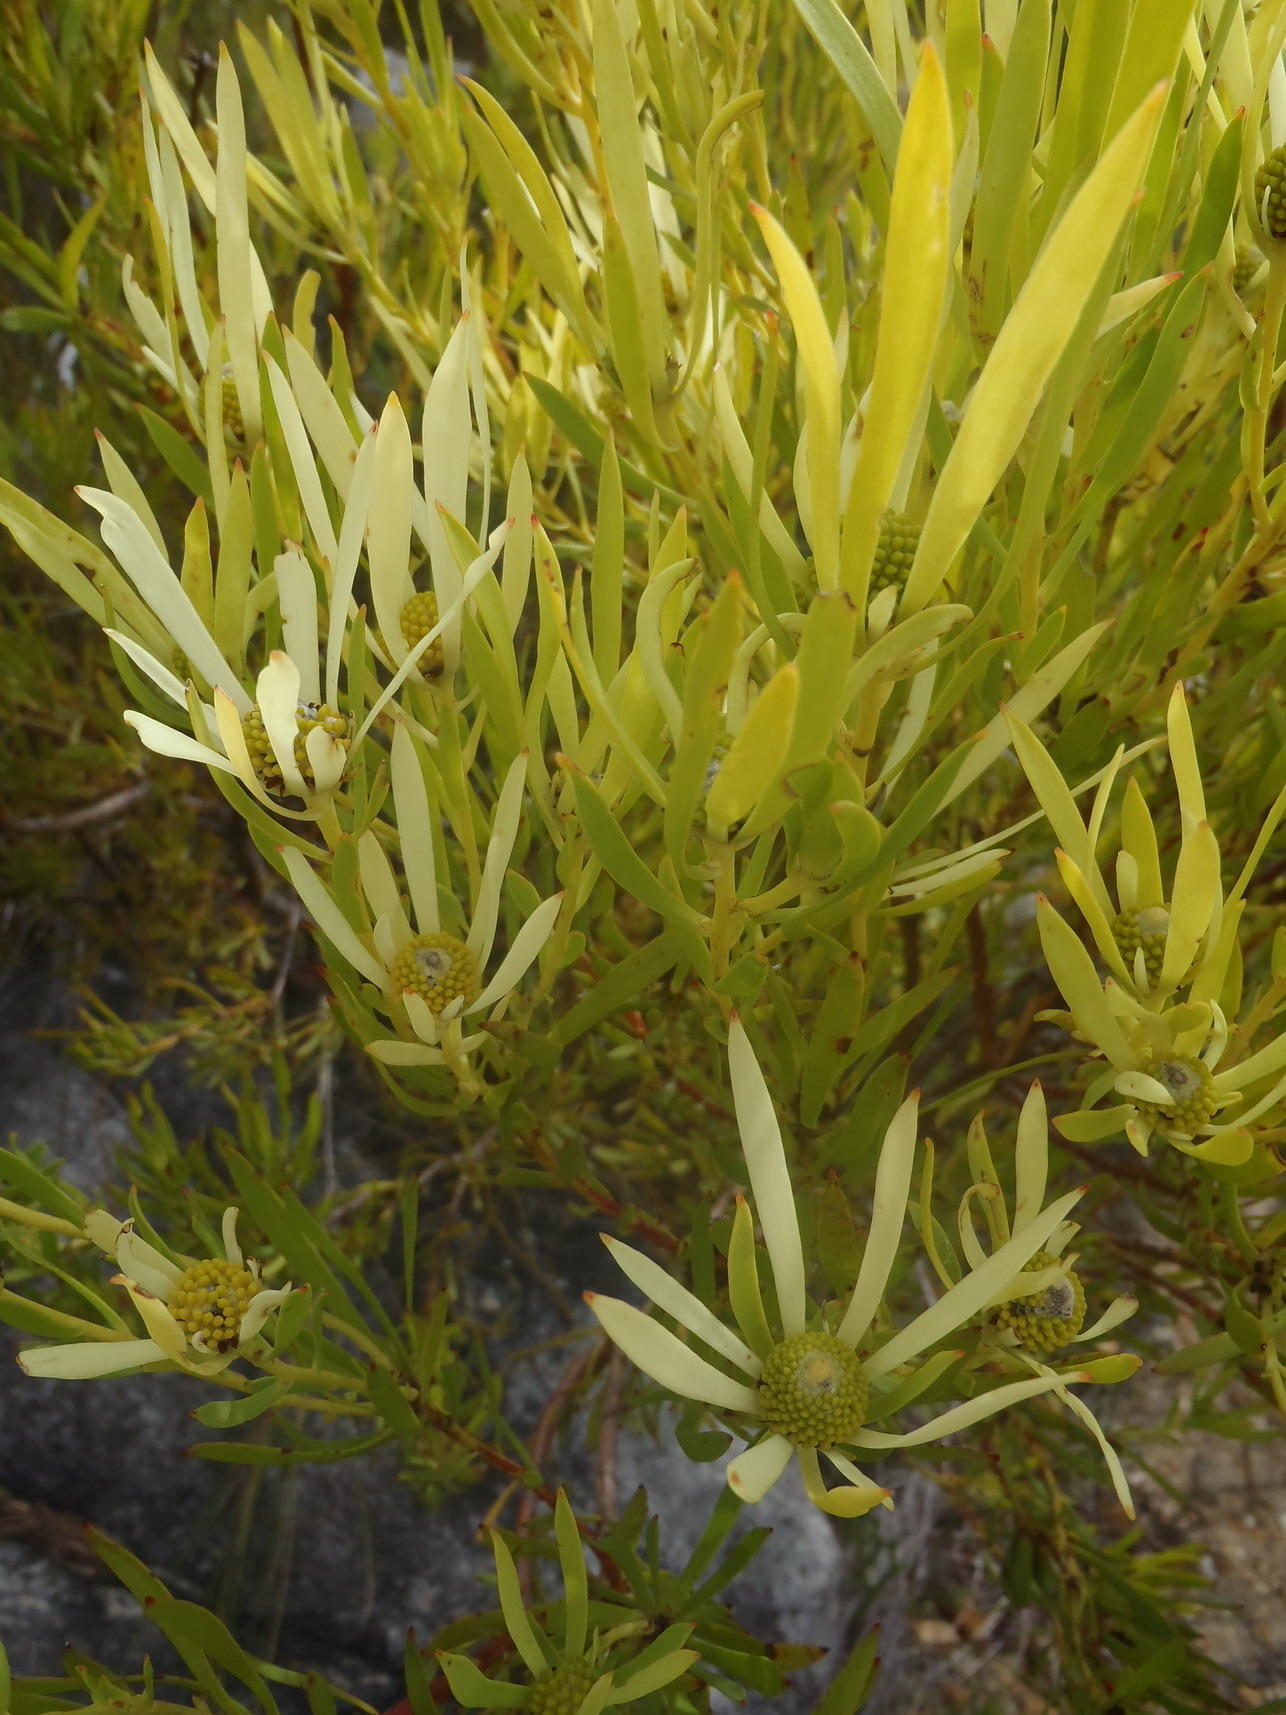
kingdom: Plantae
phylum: Tracheophyta
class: Magnoliopsida
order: Proteales
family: Proteaceae
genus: Leucadendron
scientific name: Leucadendron salignum
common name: Common sunshine conebush
